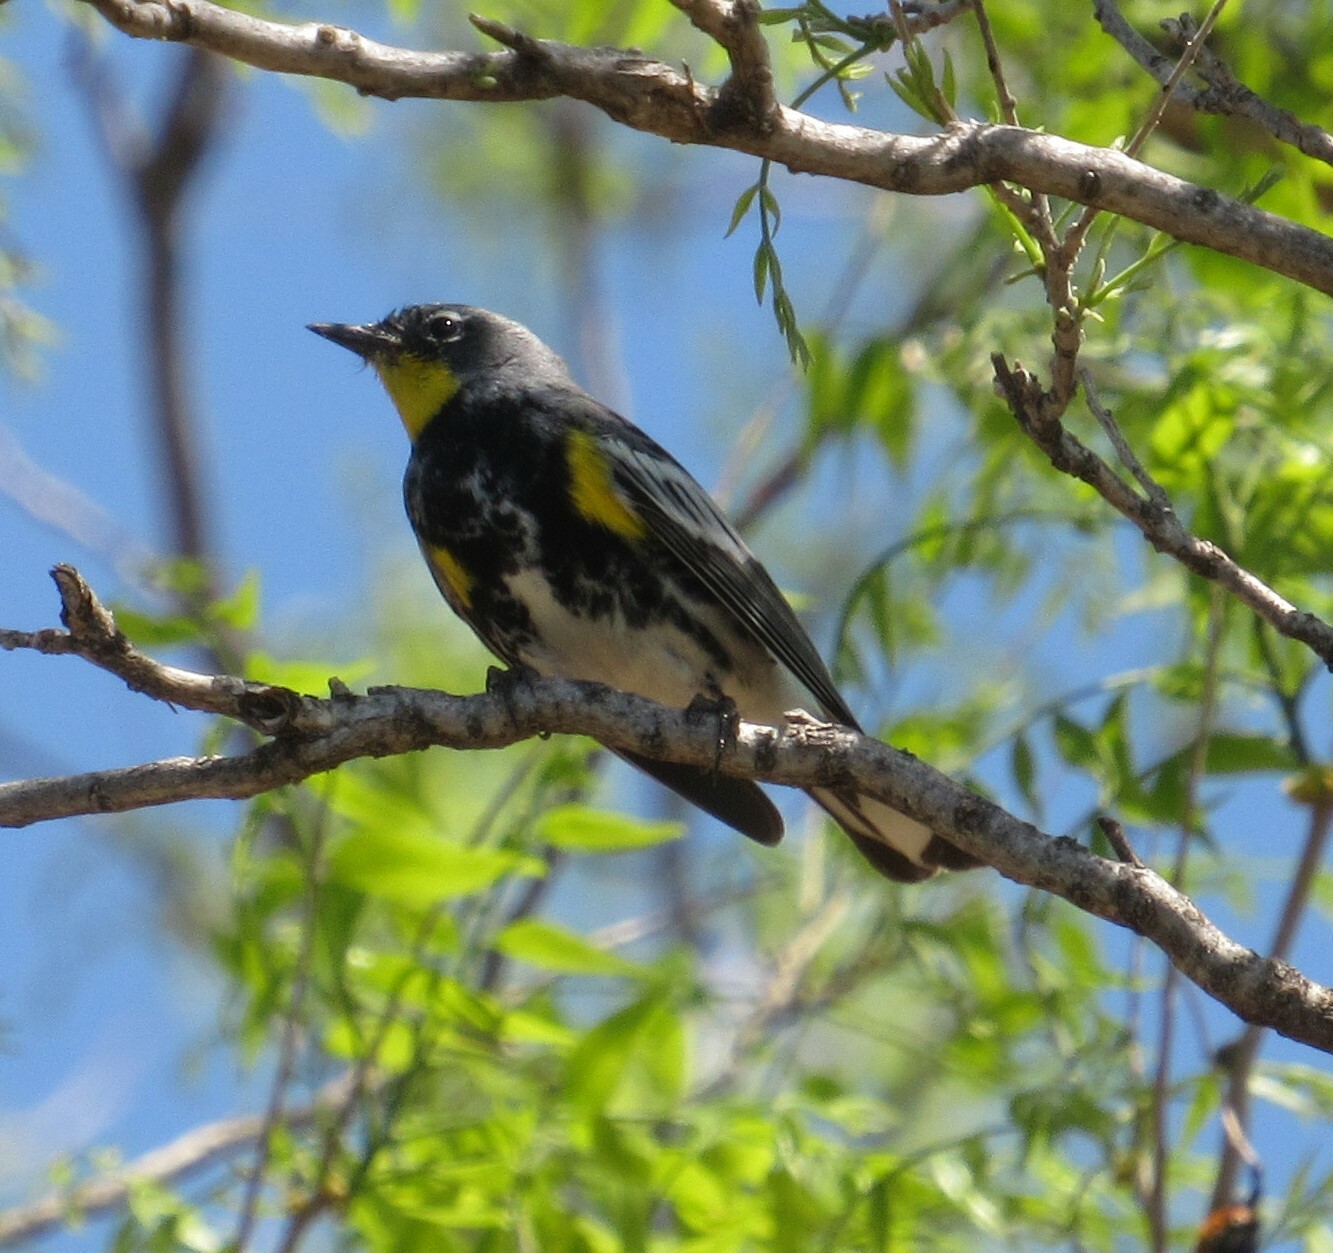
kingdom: Animalia
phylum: Chordata
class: Aves
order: Passeriformes
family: Parulidae
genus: Setophaga
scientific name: Setophaga coronata
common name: Myrtle warbler
